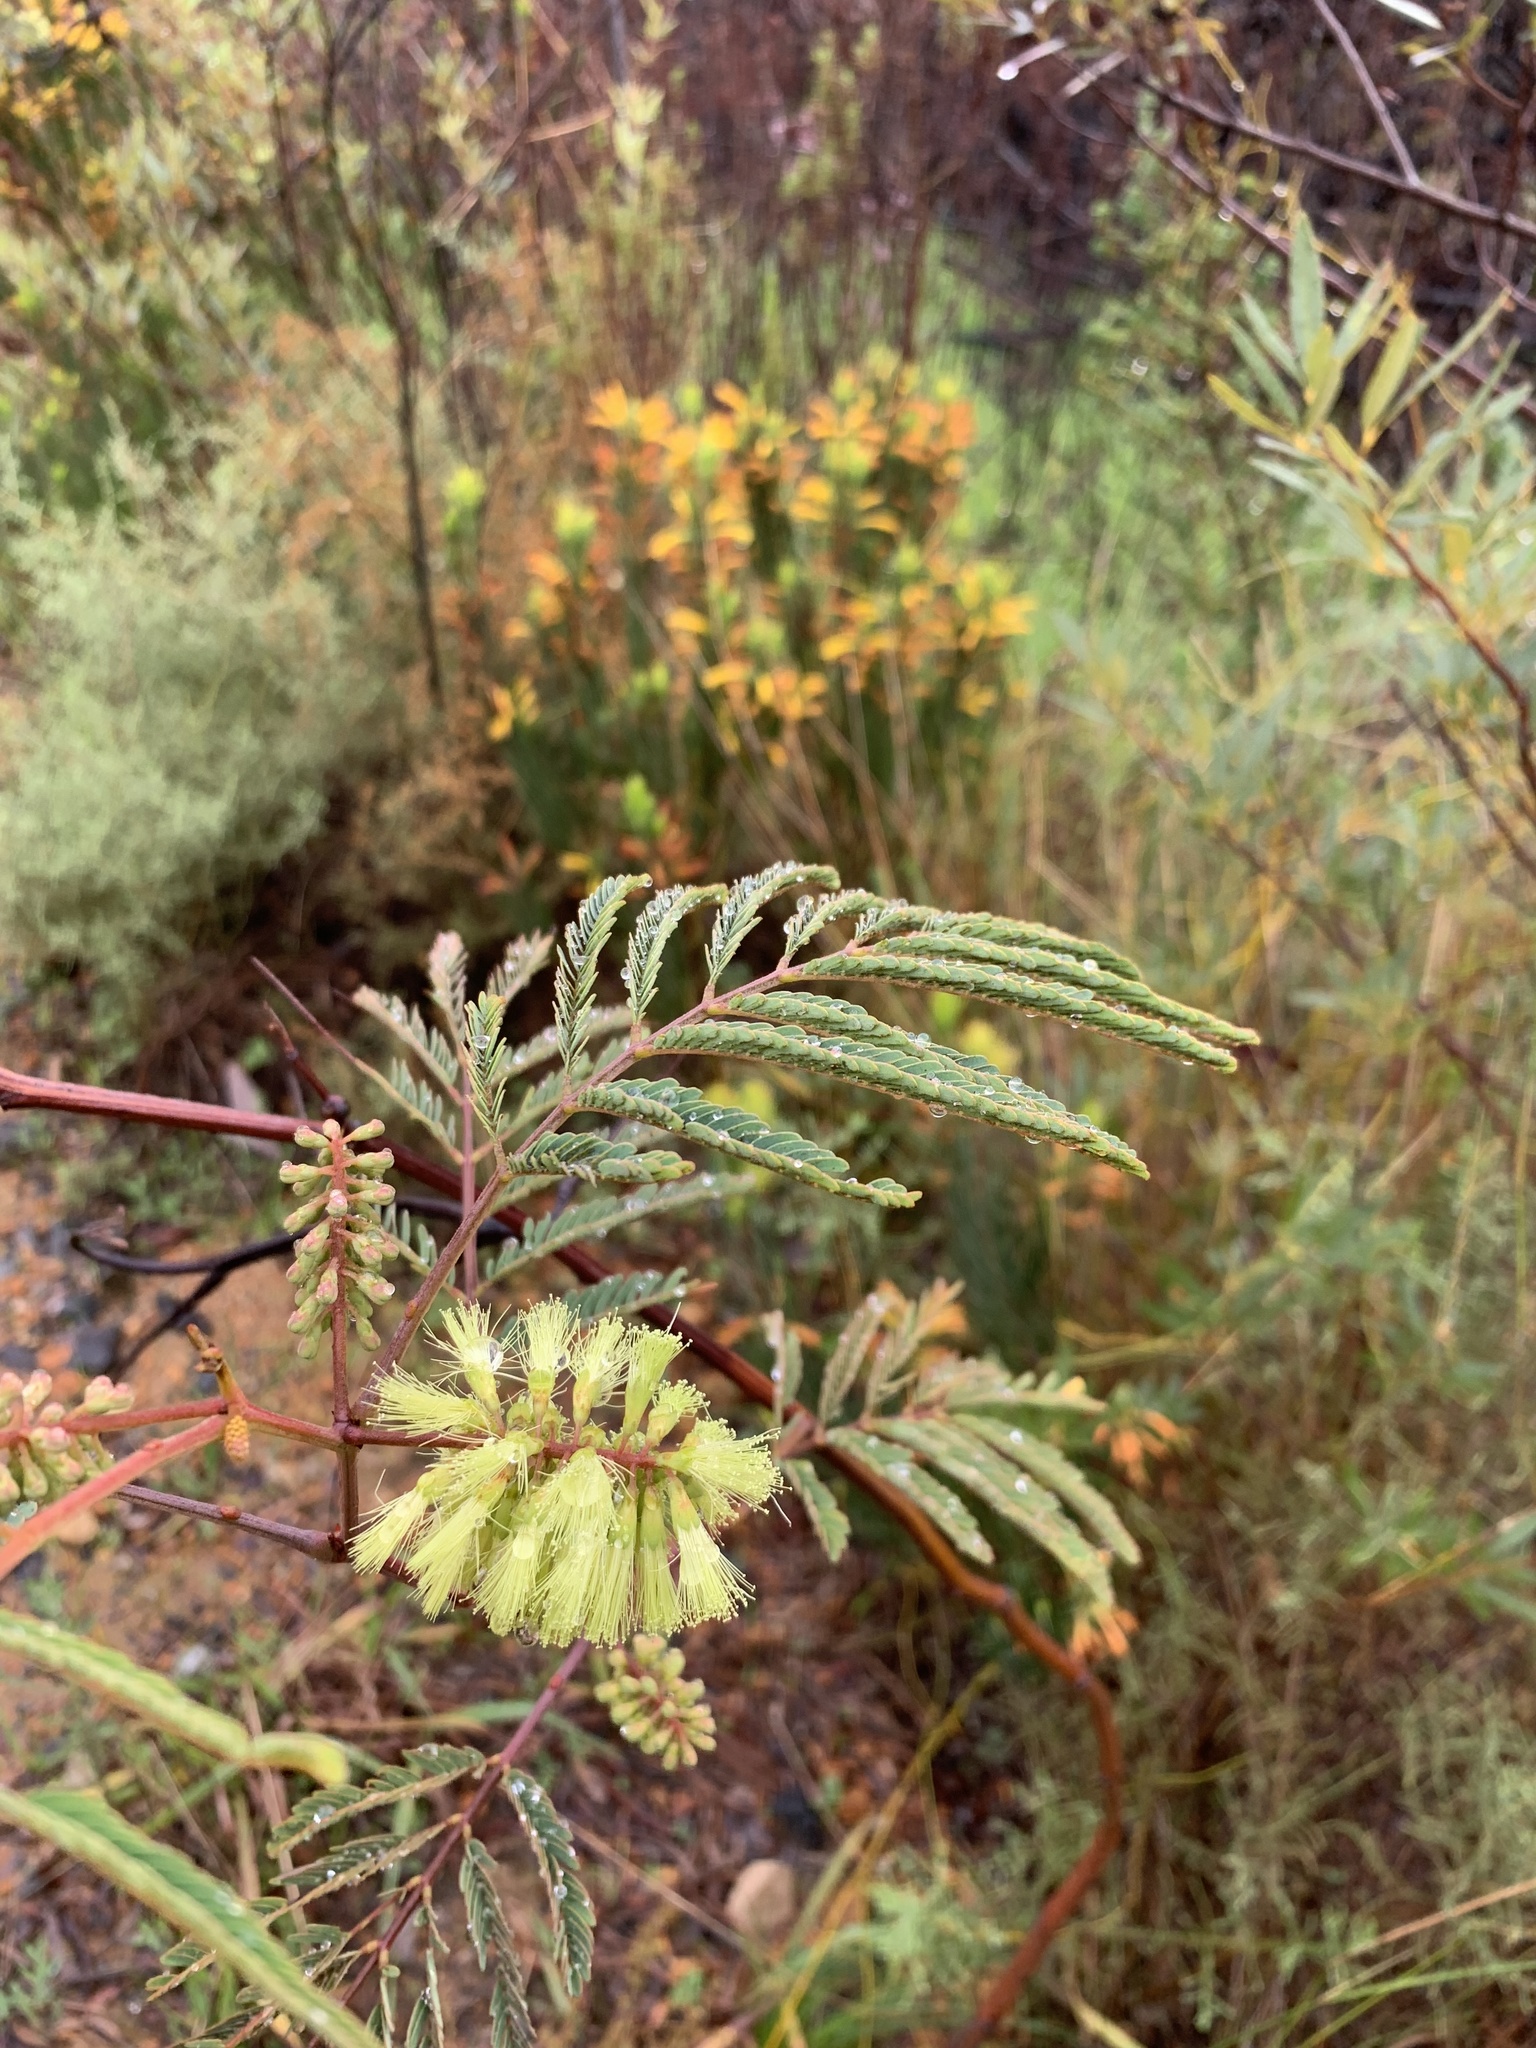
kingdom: Plantae
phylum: Tracheophyta
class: Magnoliopsida
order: Fabales
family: Fabaceae
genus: Paraserianthes
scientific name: Paraserianthes lophantha
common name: Plume albizia
